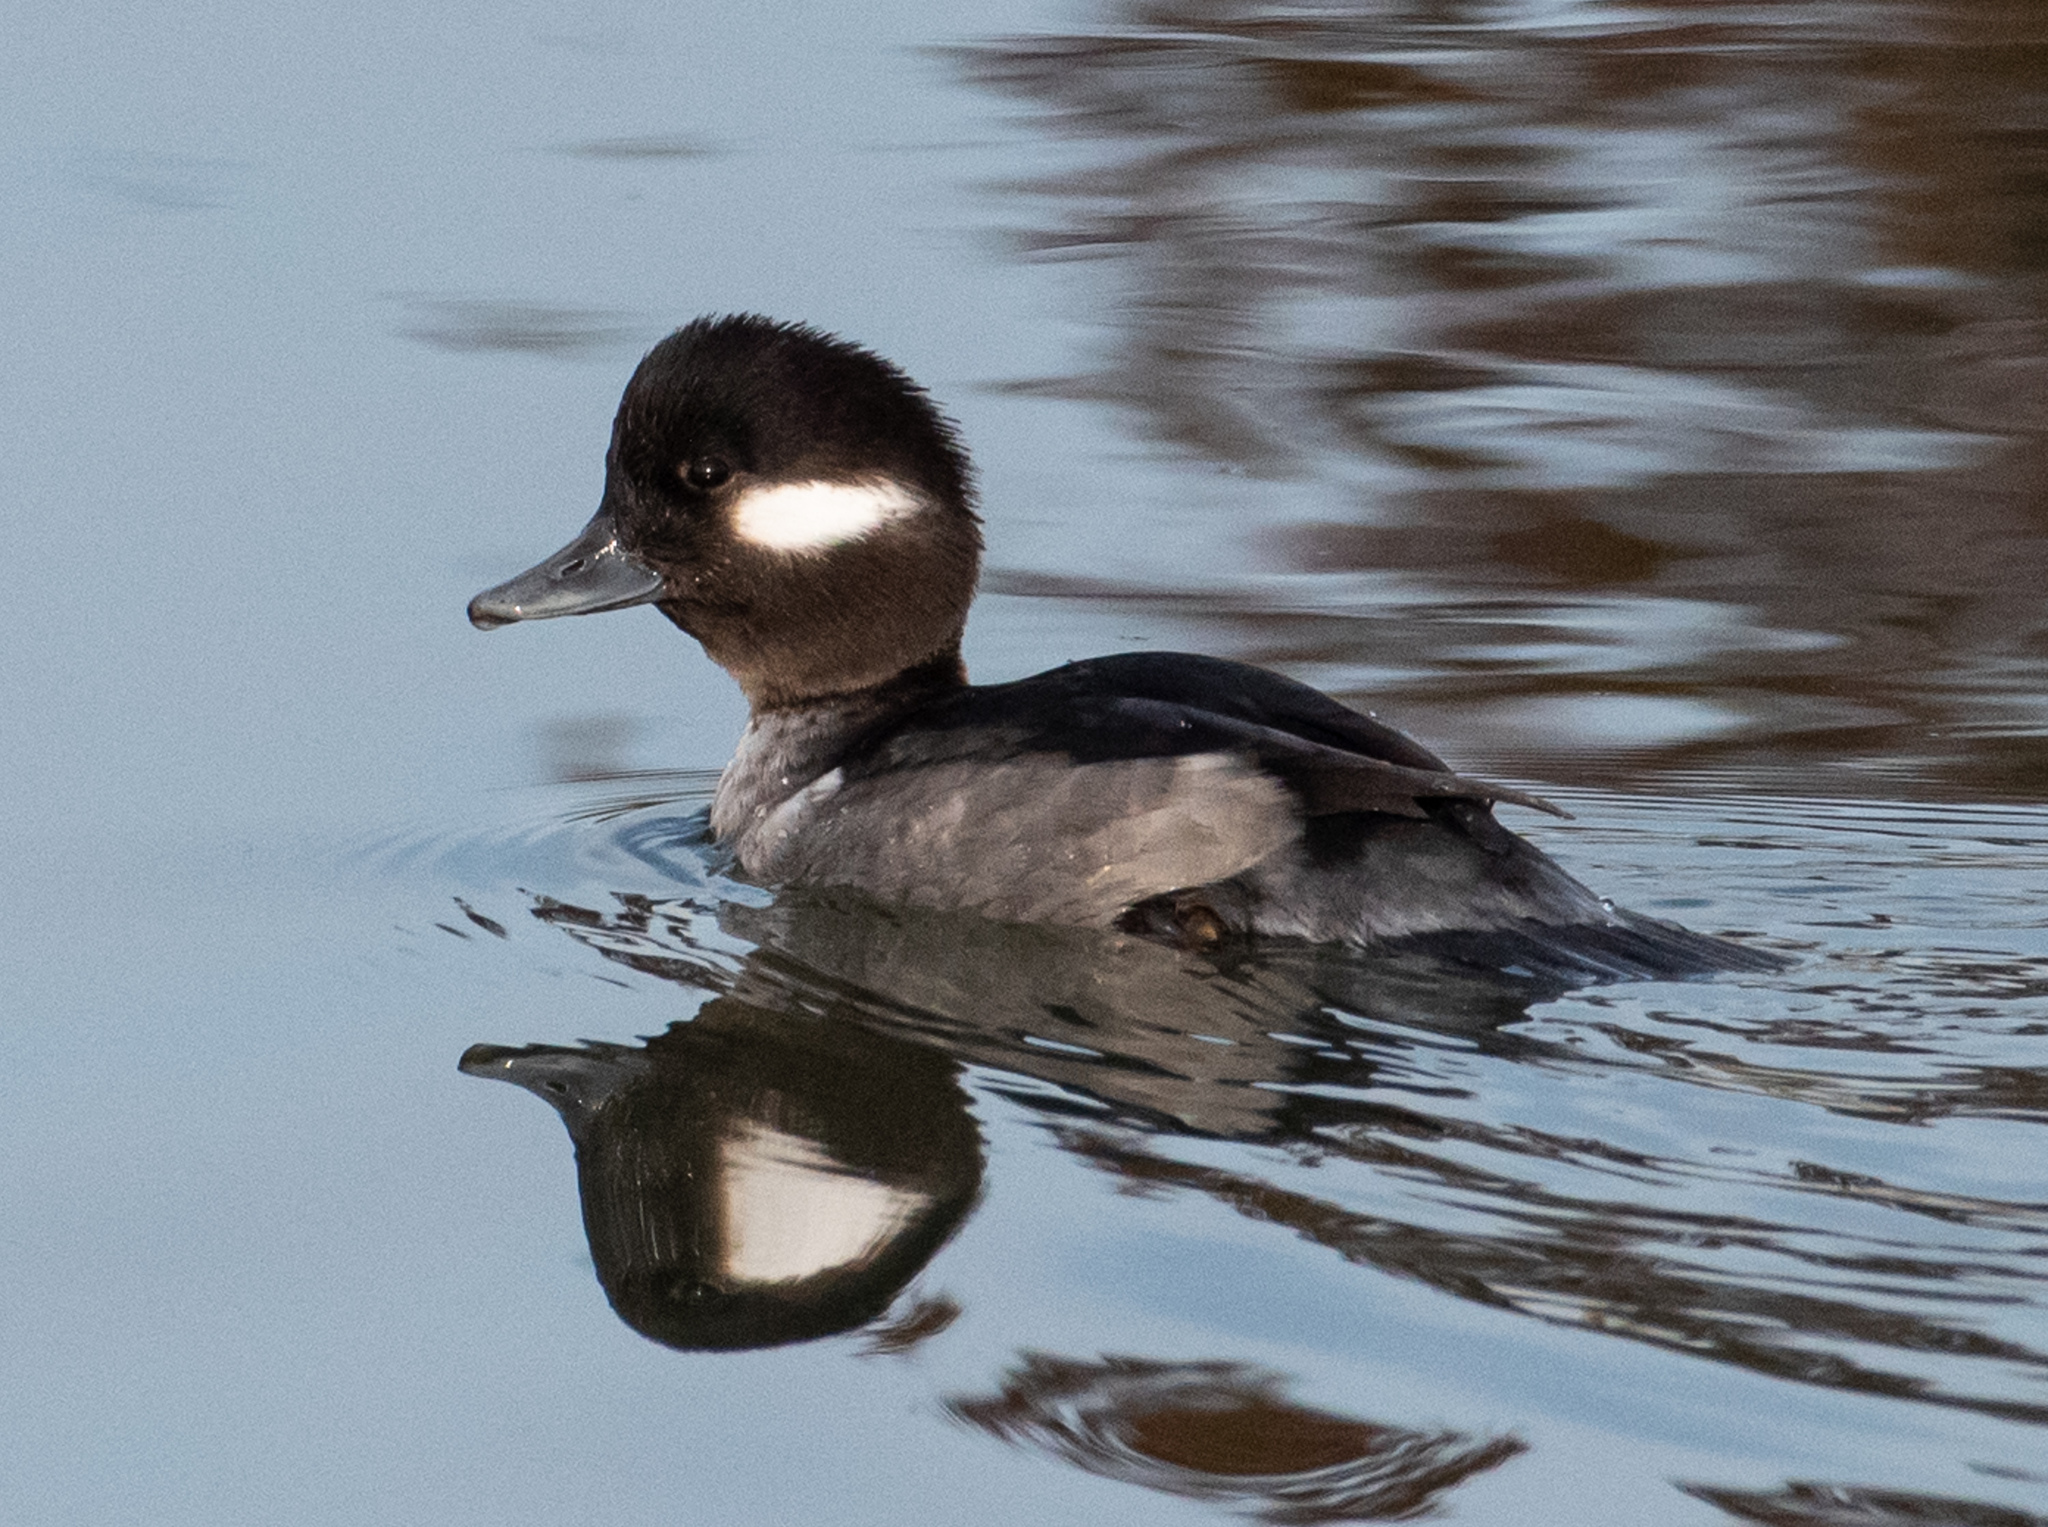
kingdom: Animalia
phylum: Chordata
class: Aves
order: Anseriformes
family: Anatidae
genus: Bucephala
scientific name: Bucephala albeola
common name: Bufflehead
